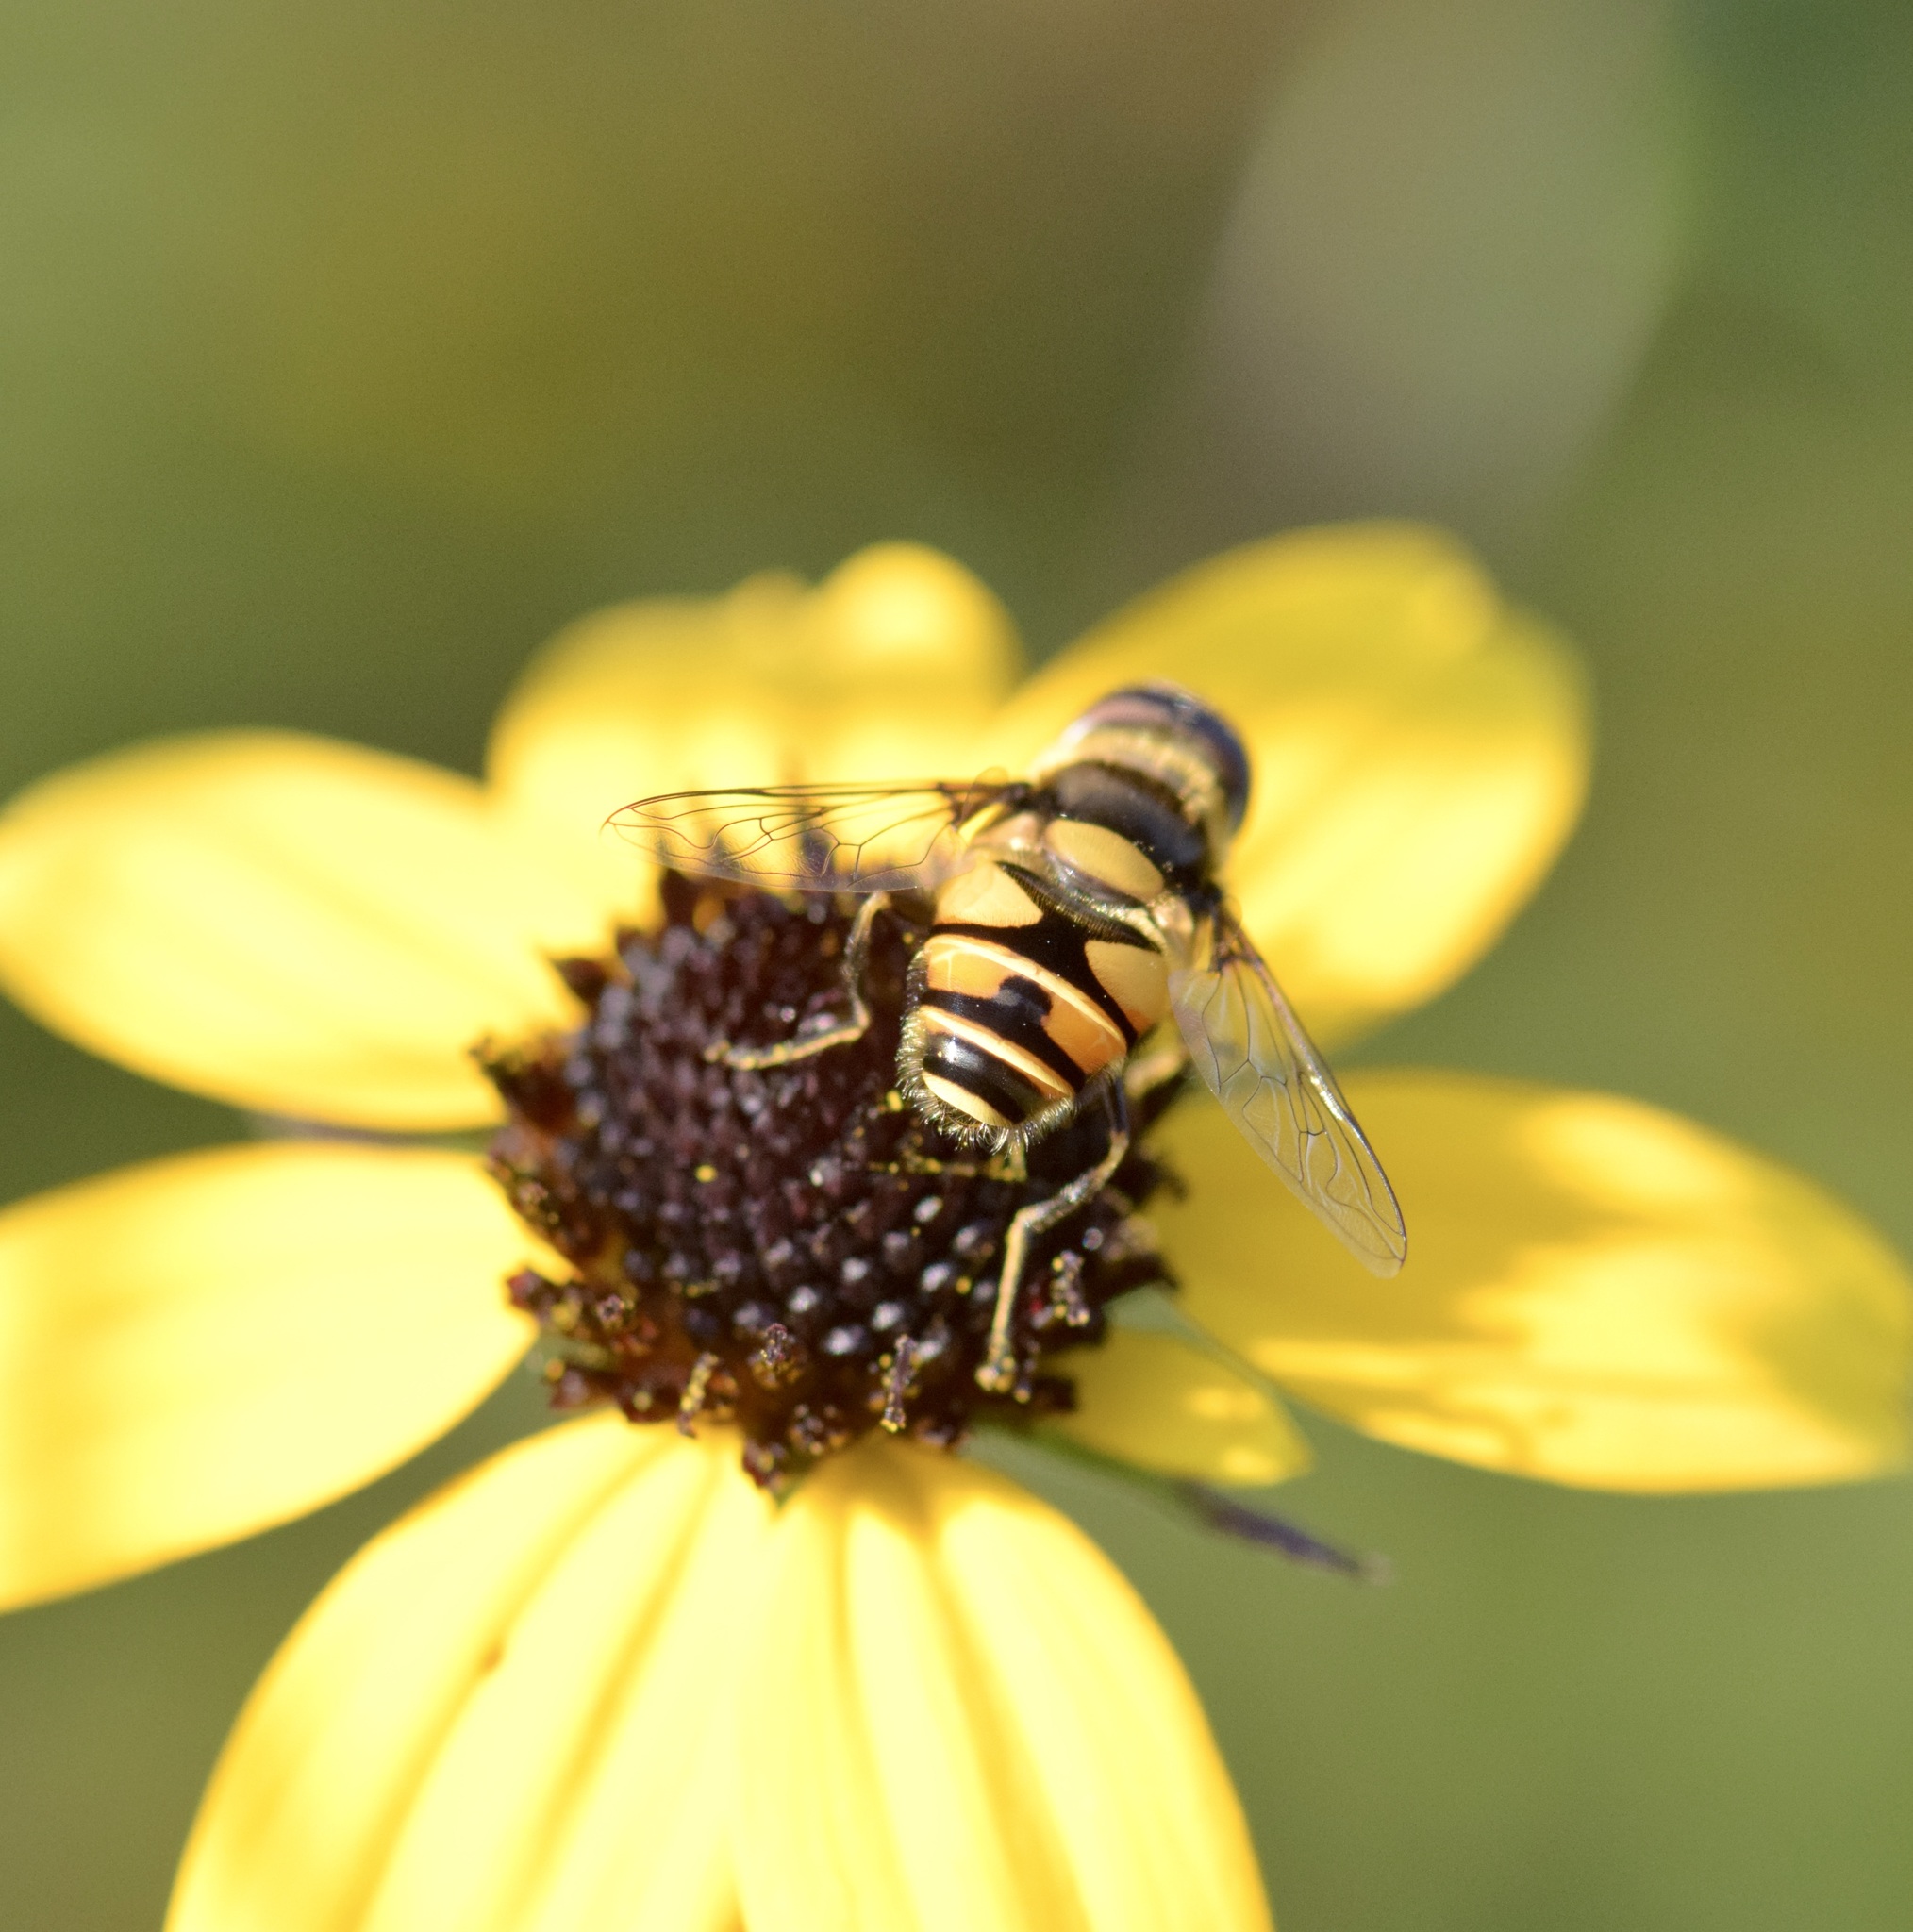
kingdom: Animalia
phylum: Arthropoda
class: Insecta
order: Diptera
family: Syrphidae
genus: Eristalis
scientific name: Eristalis transversa
